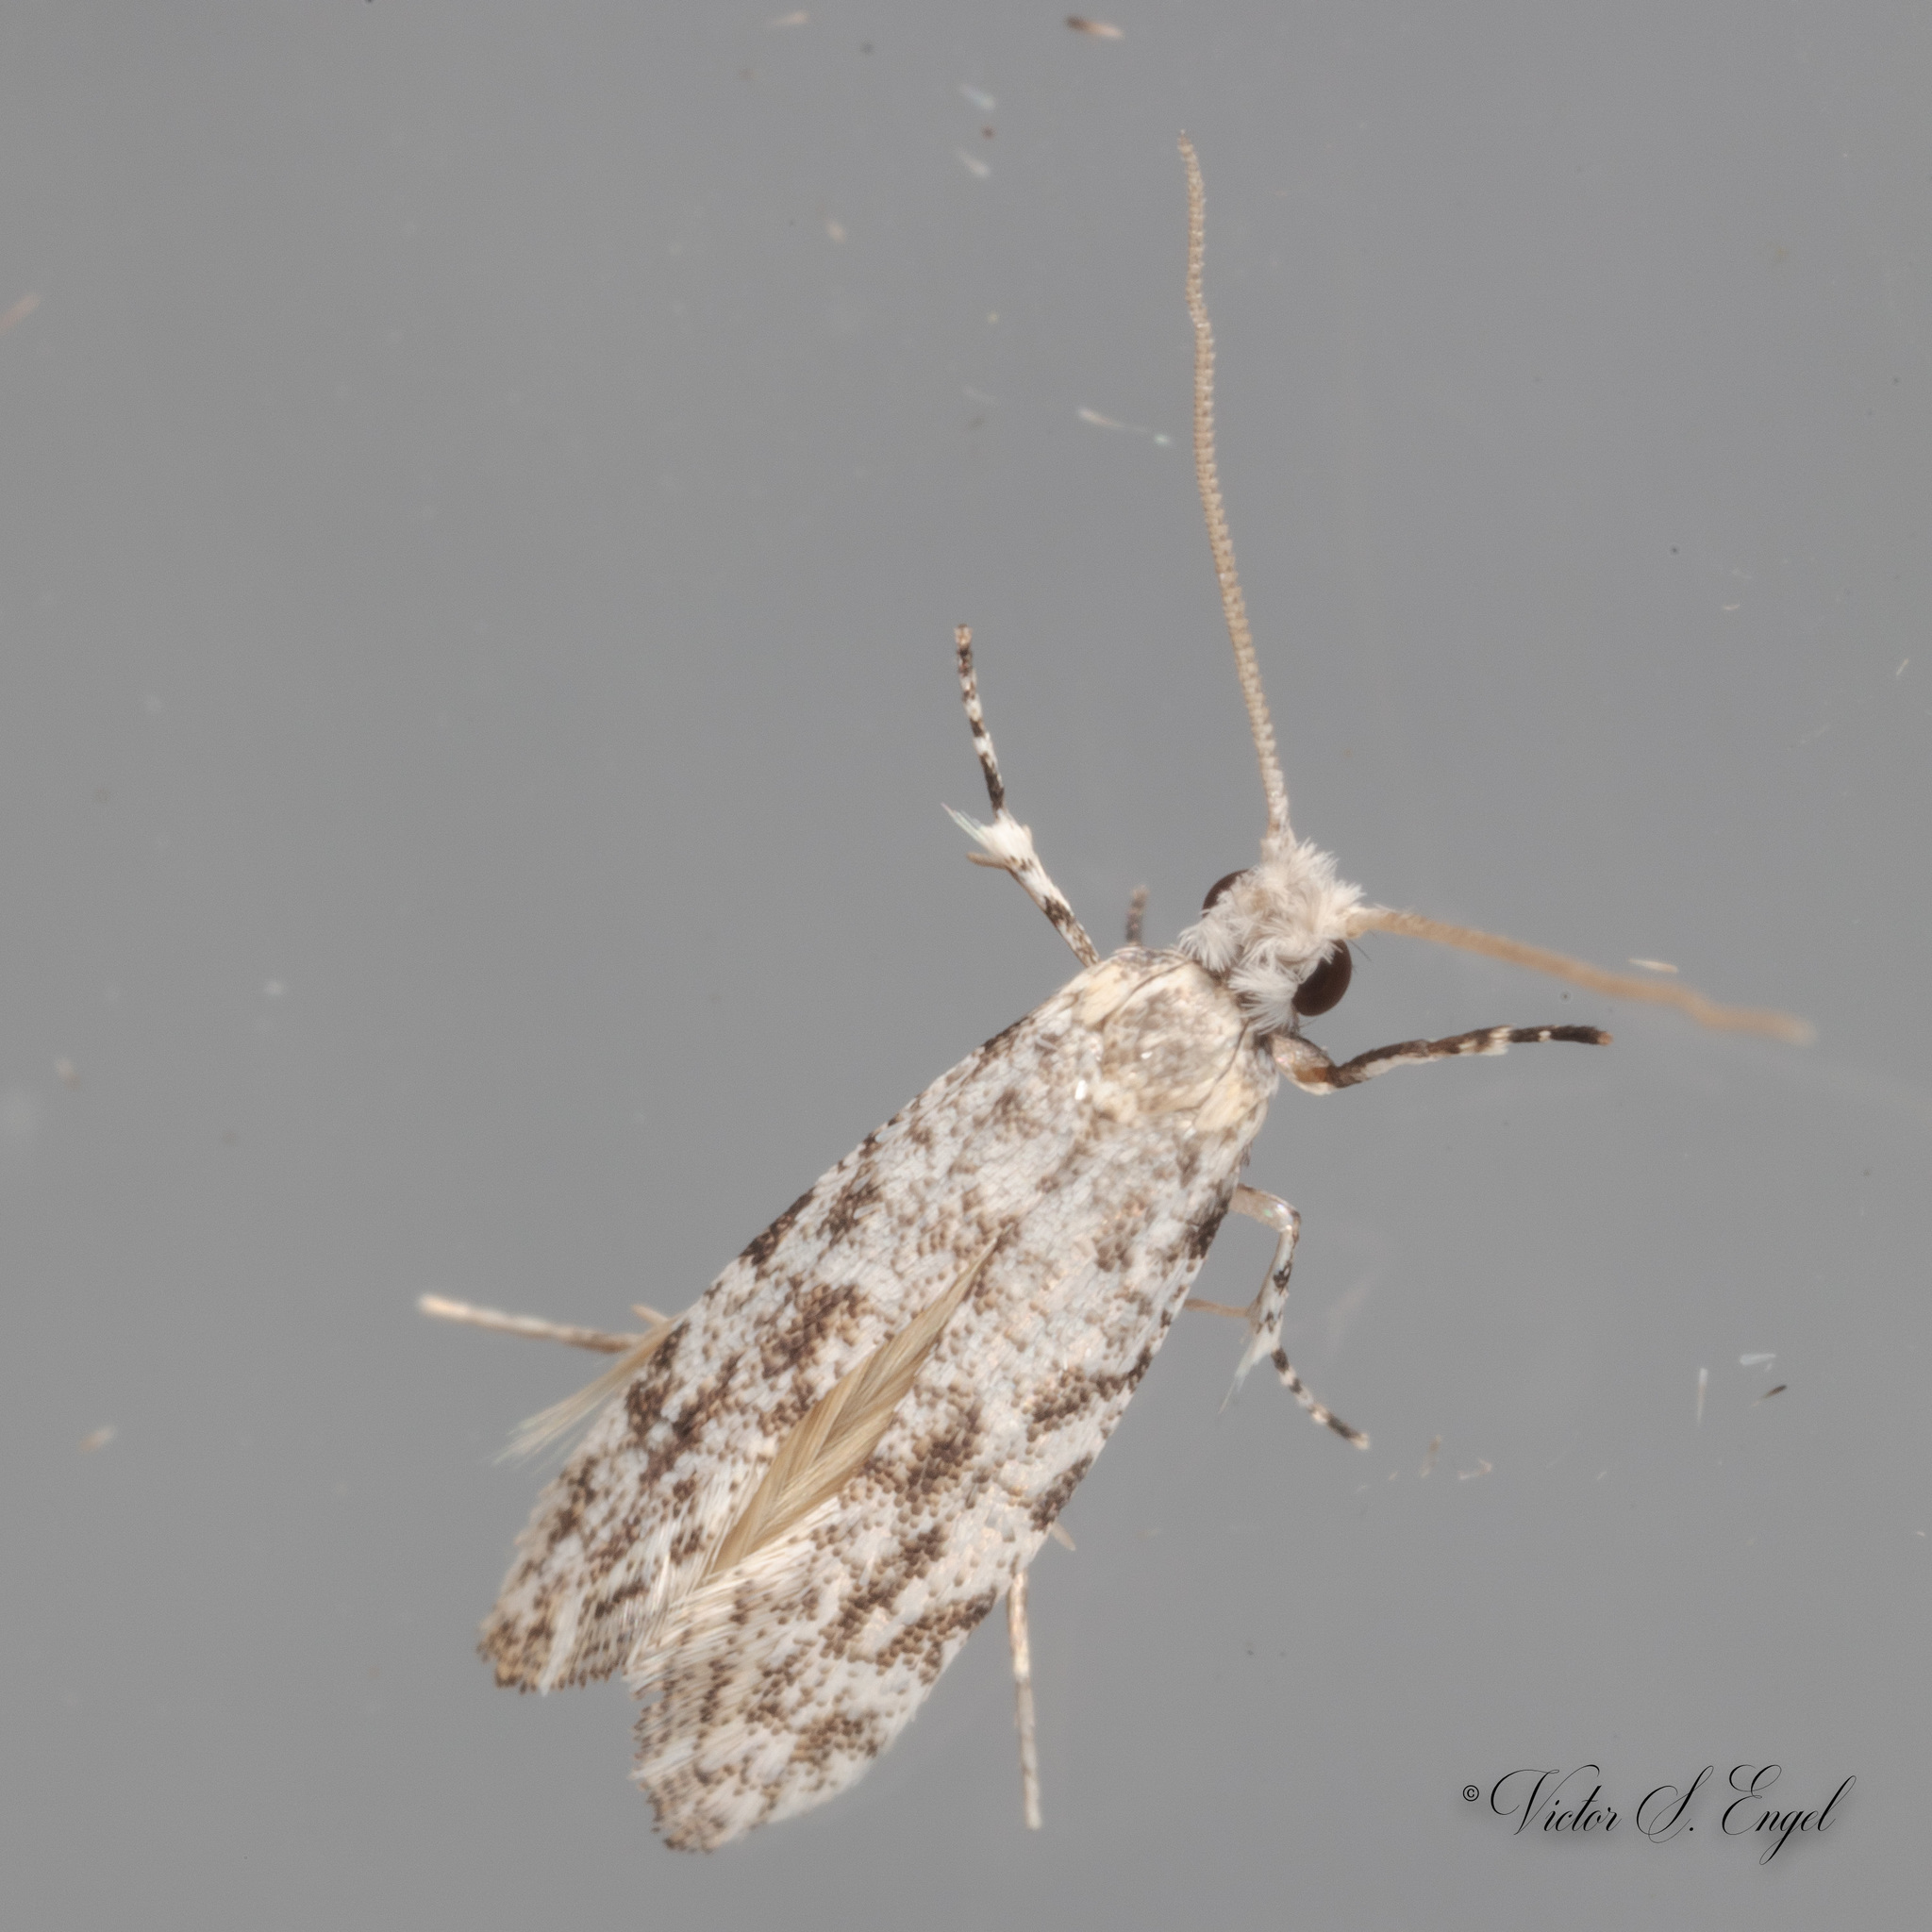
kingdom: Animalia
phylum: Arthropoda
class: Insecta
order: Lepidoptera
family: Meessiidae
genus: Diachorisia
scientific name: Diachorisia velatella
